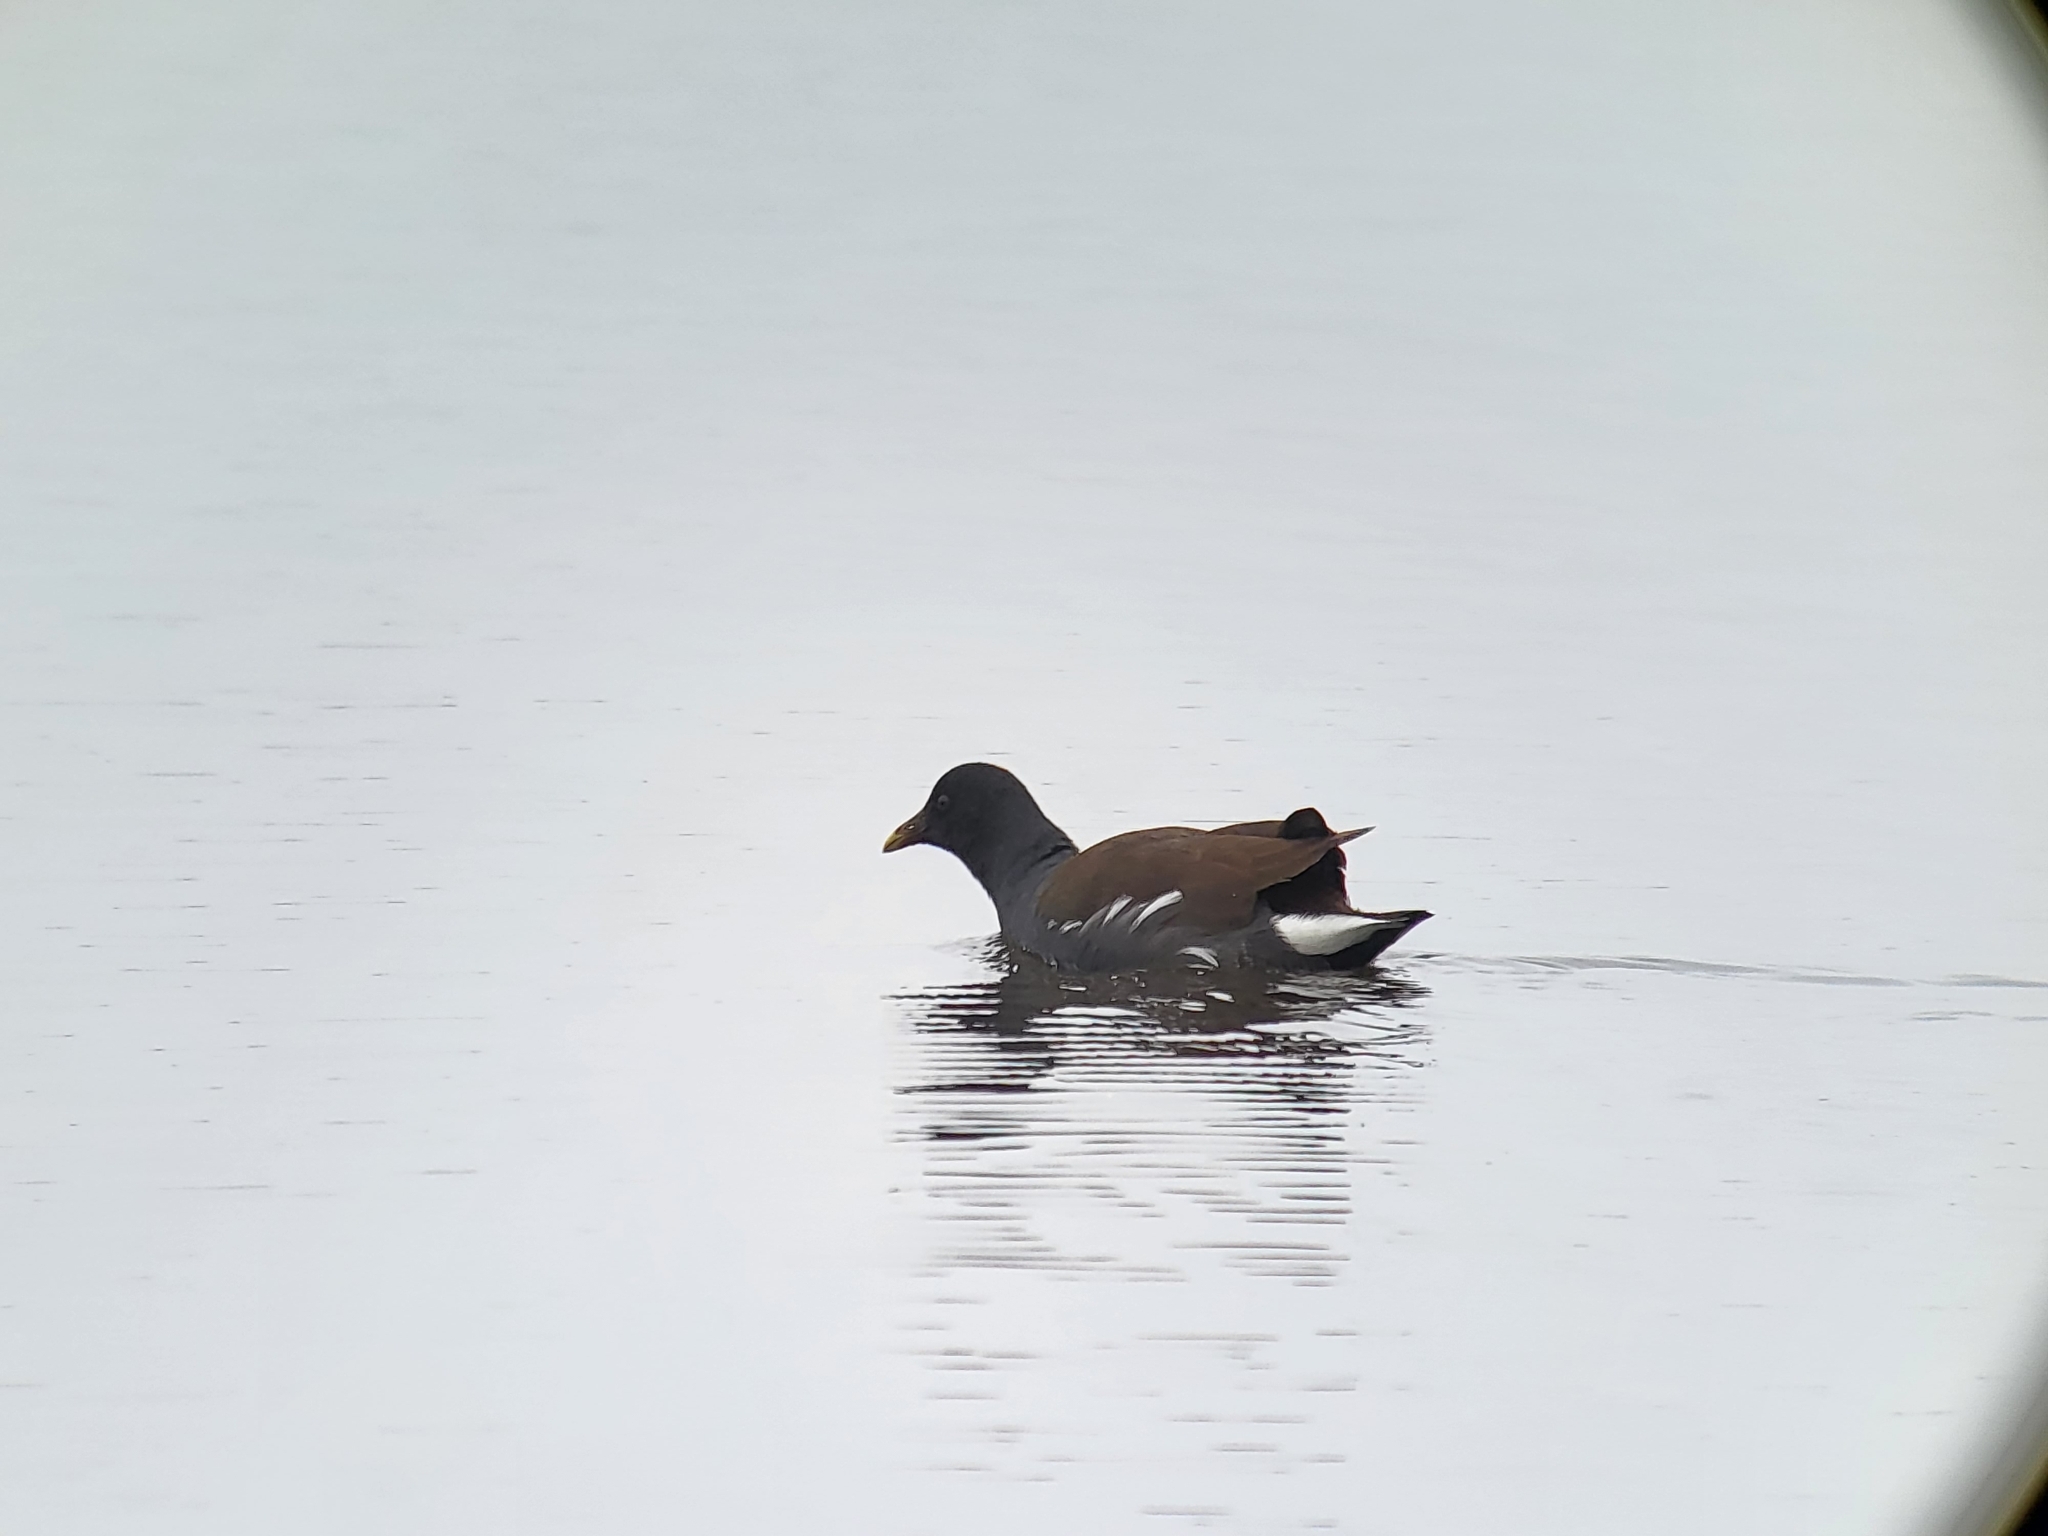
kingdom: Animalia
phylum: Chordata
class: Aves
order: Gruiformes
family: Rallidae
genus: Gallinula
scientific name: Gallinula chloropus
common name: Common moorhen
